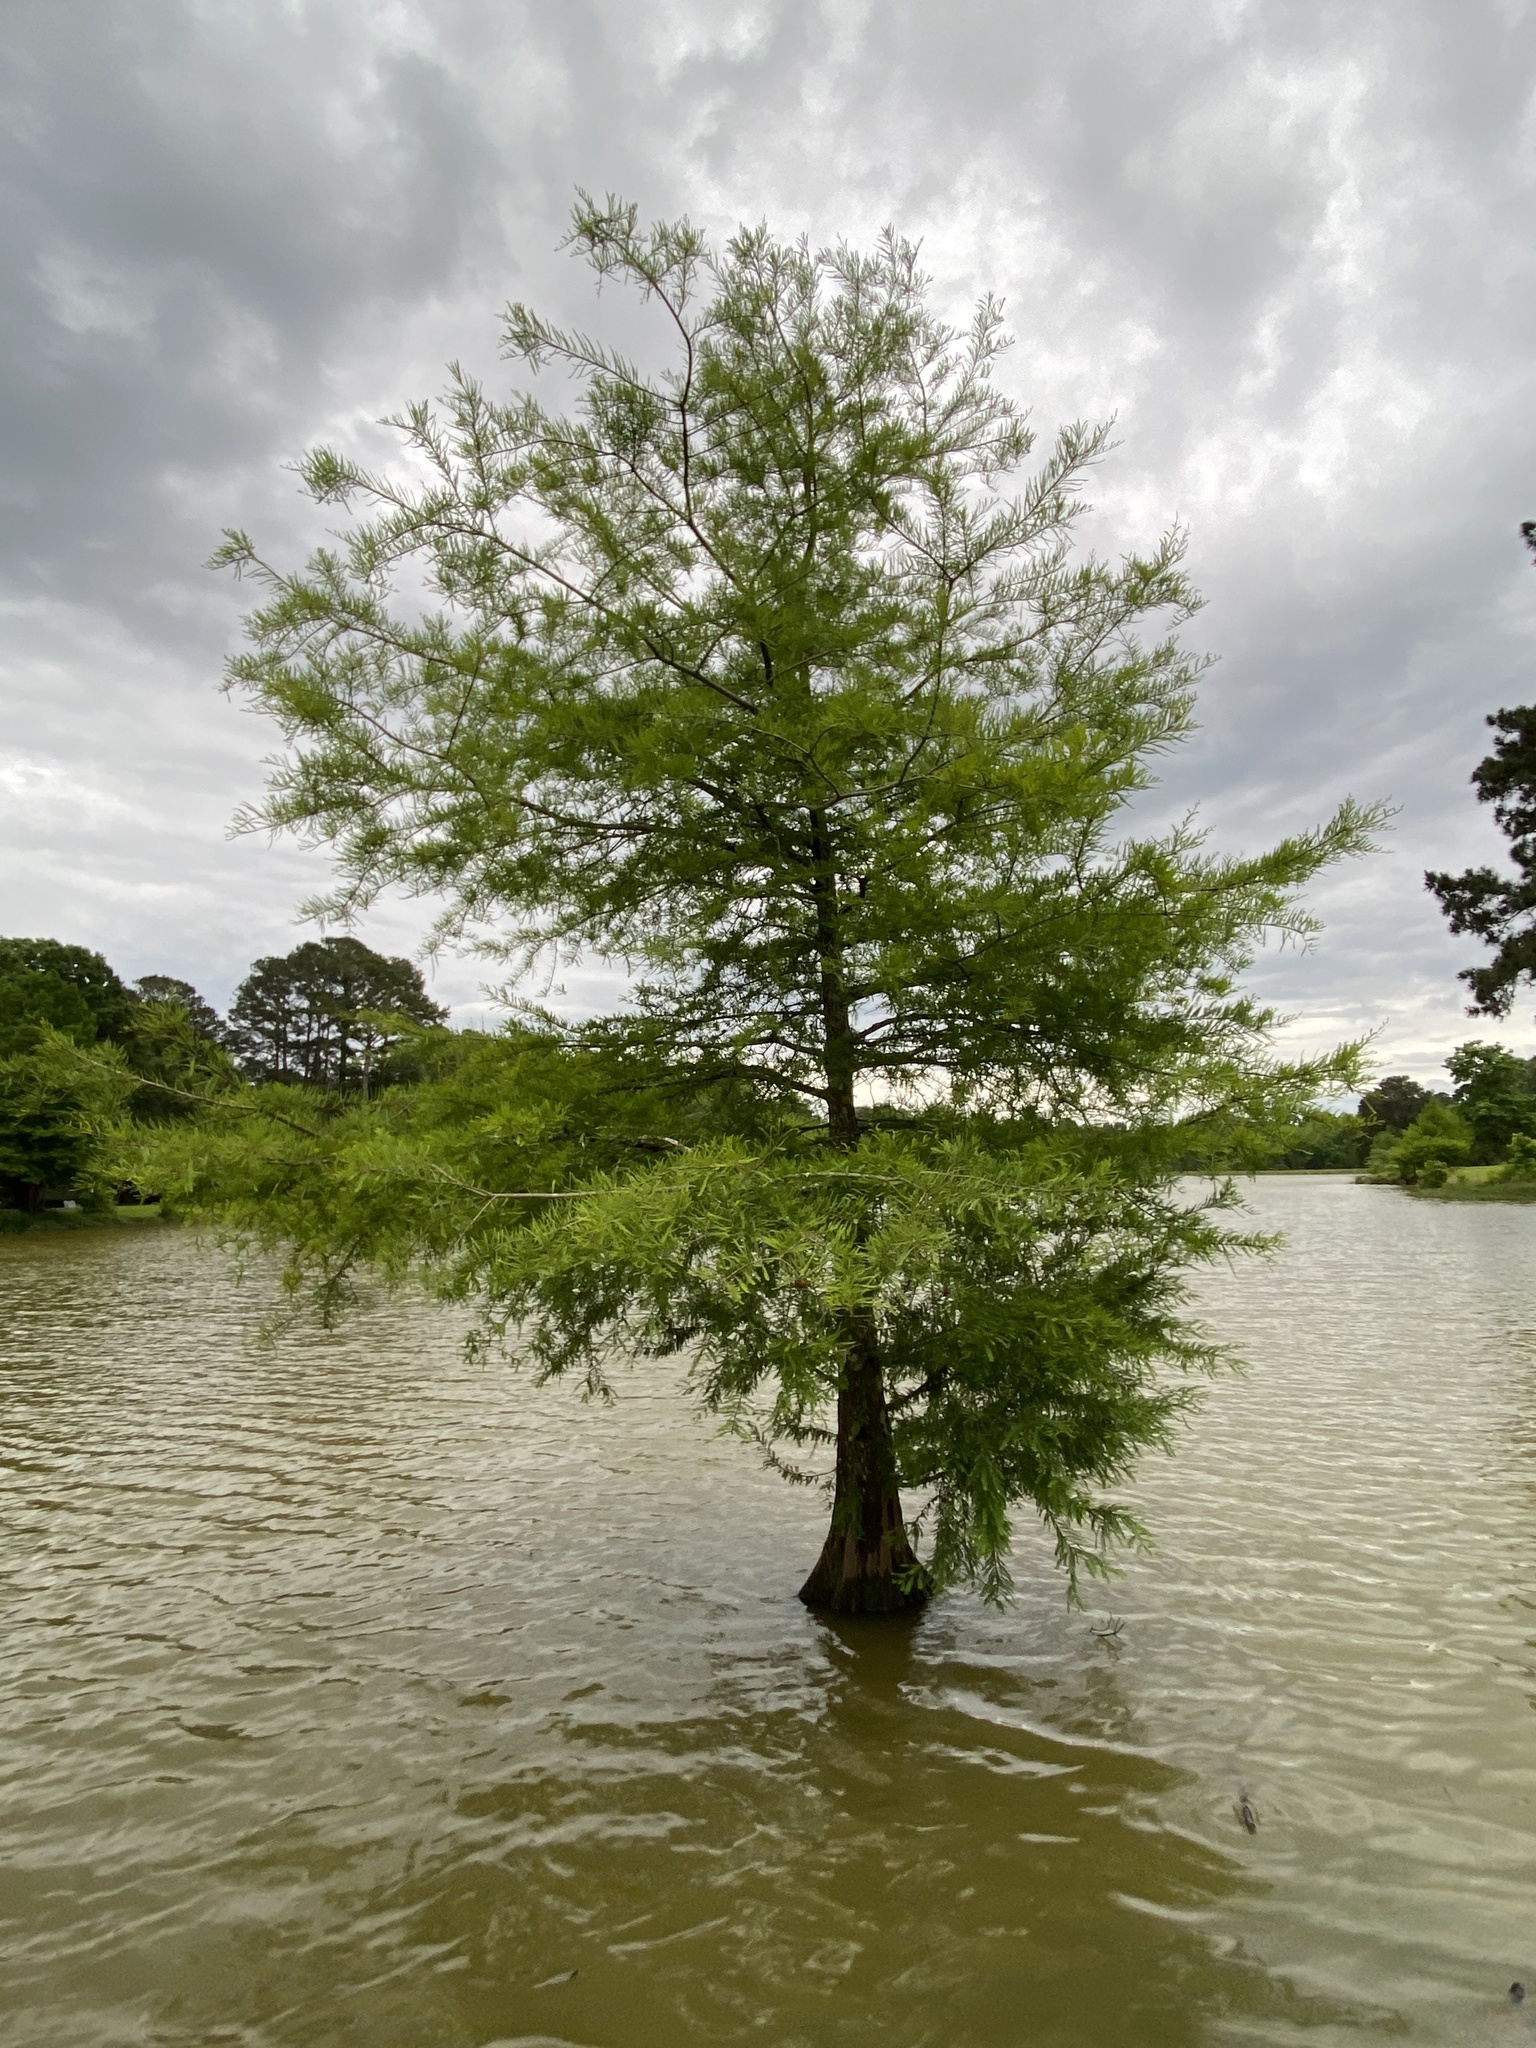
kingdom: Plantae
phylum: Tracheophyta
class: Pinopsida
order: Pinales
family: Cupressaceae
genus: Taxodium
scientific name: Taxodium distichum
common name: Bald cypress
